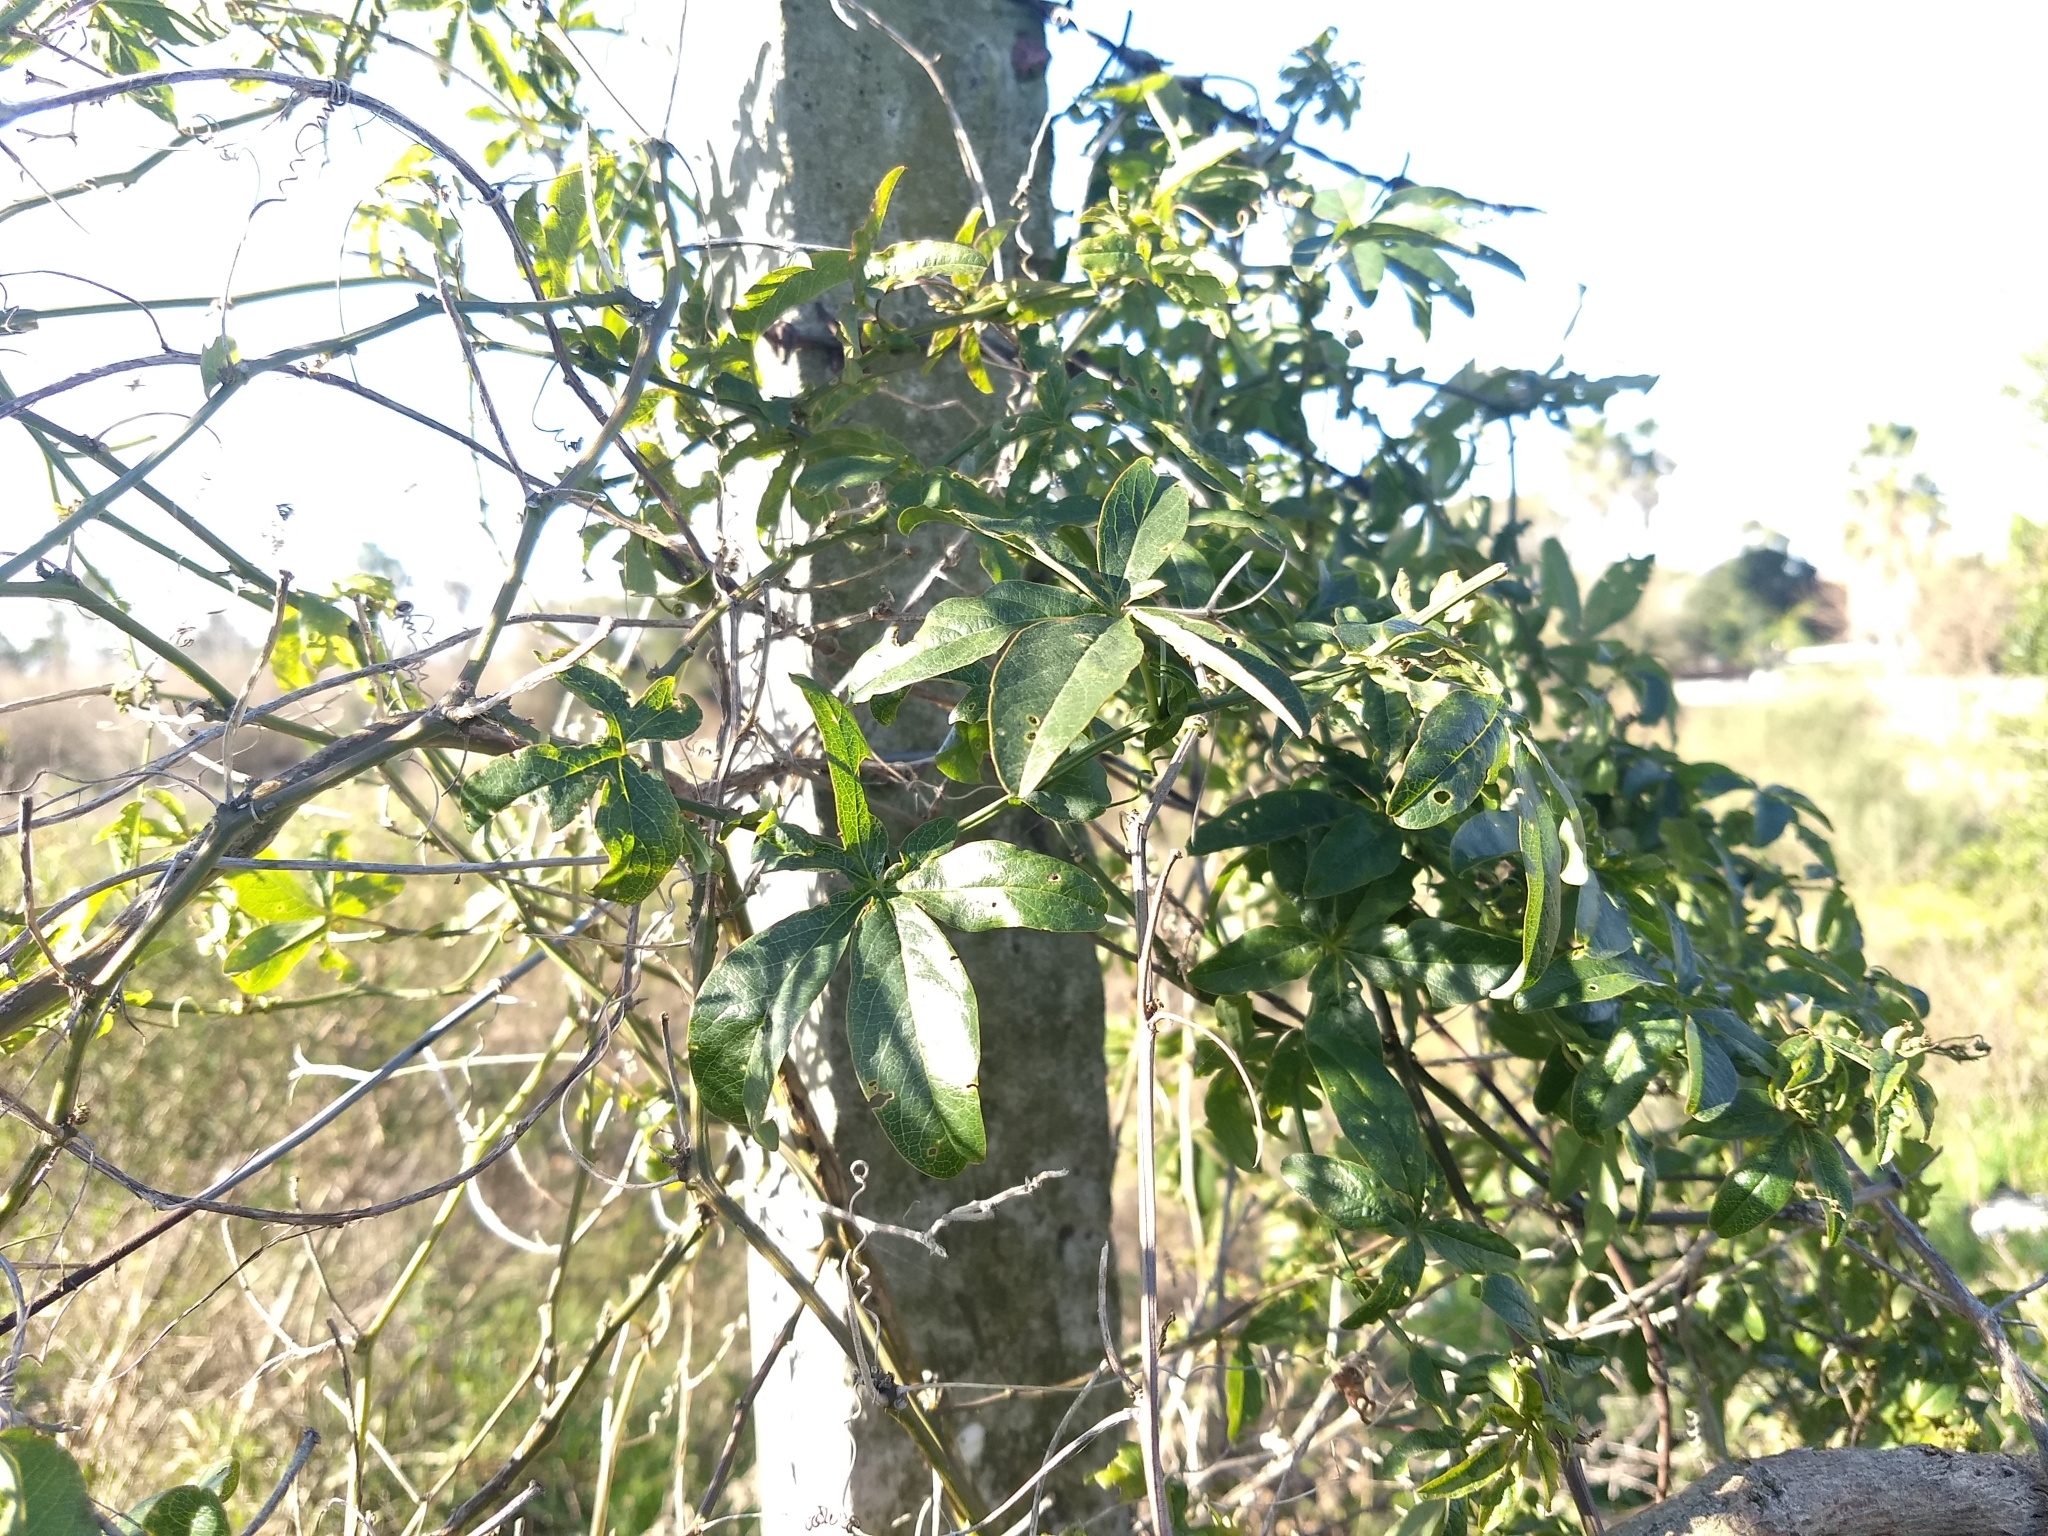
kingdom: Plantae
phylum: Tracheophyta
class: Magnoliopsida
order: Malpighiales
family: Passifloraceae
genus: Passiflora
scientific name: Passiflora caerulea
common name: Blue passionflower
